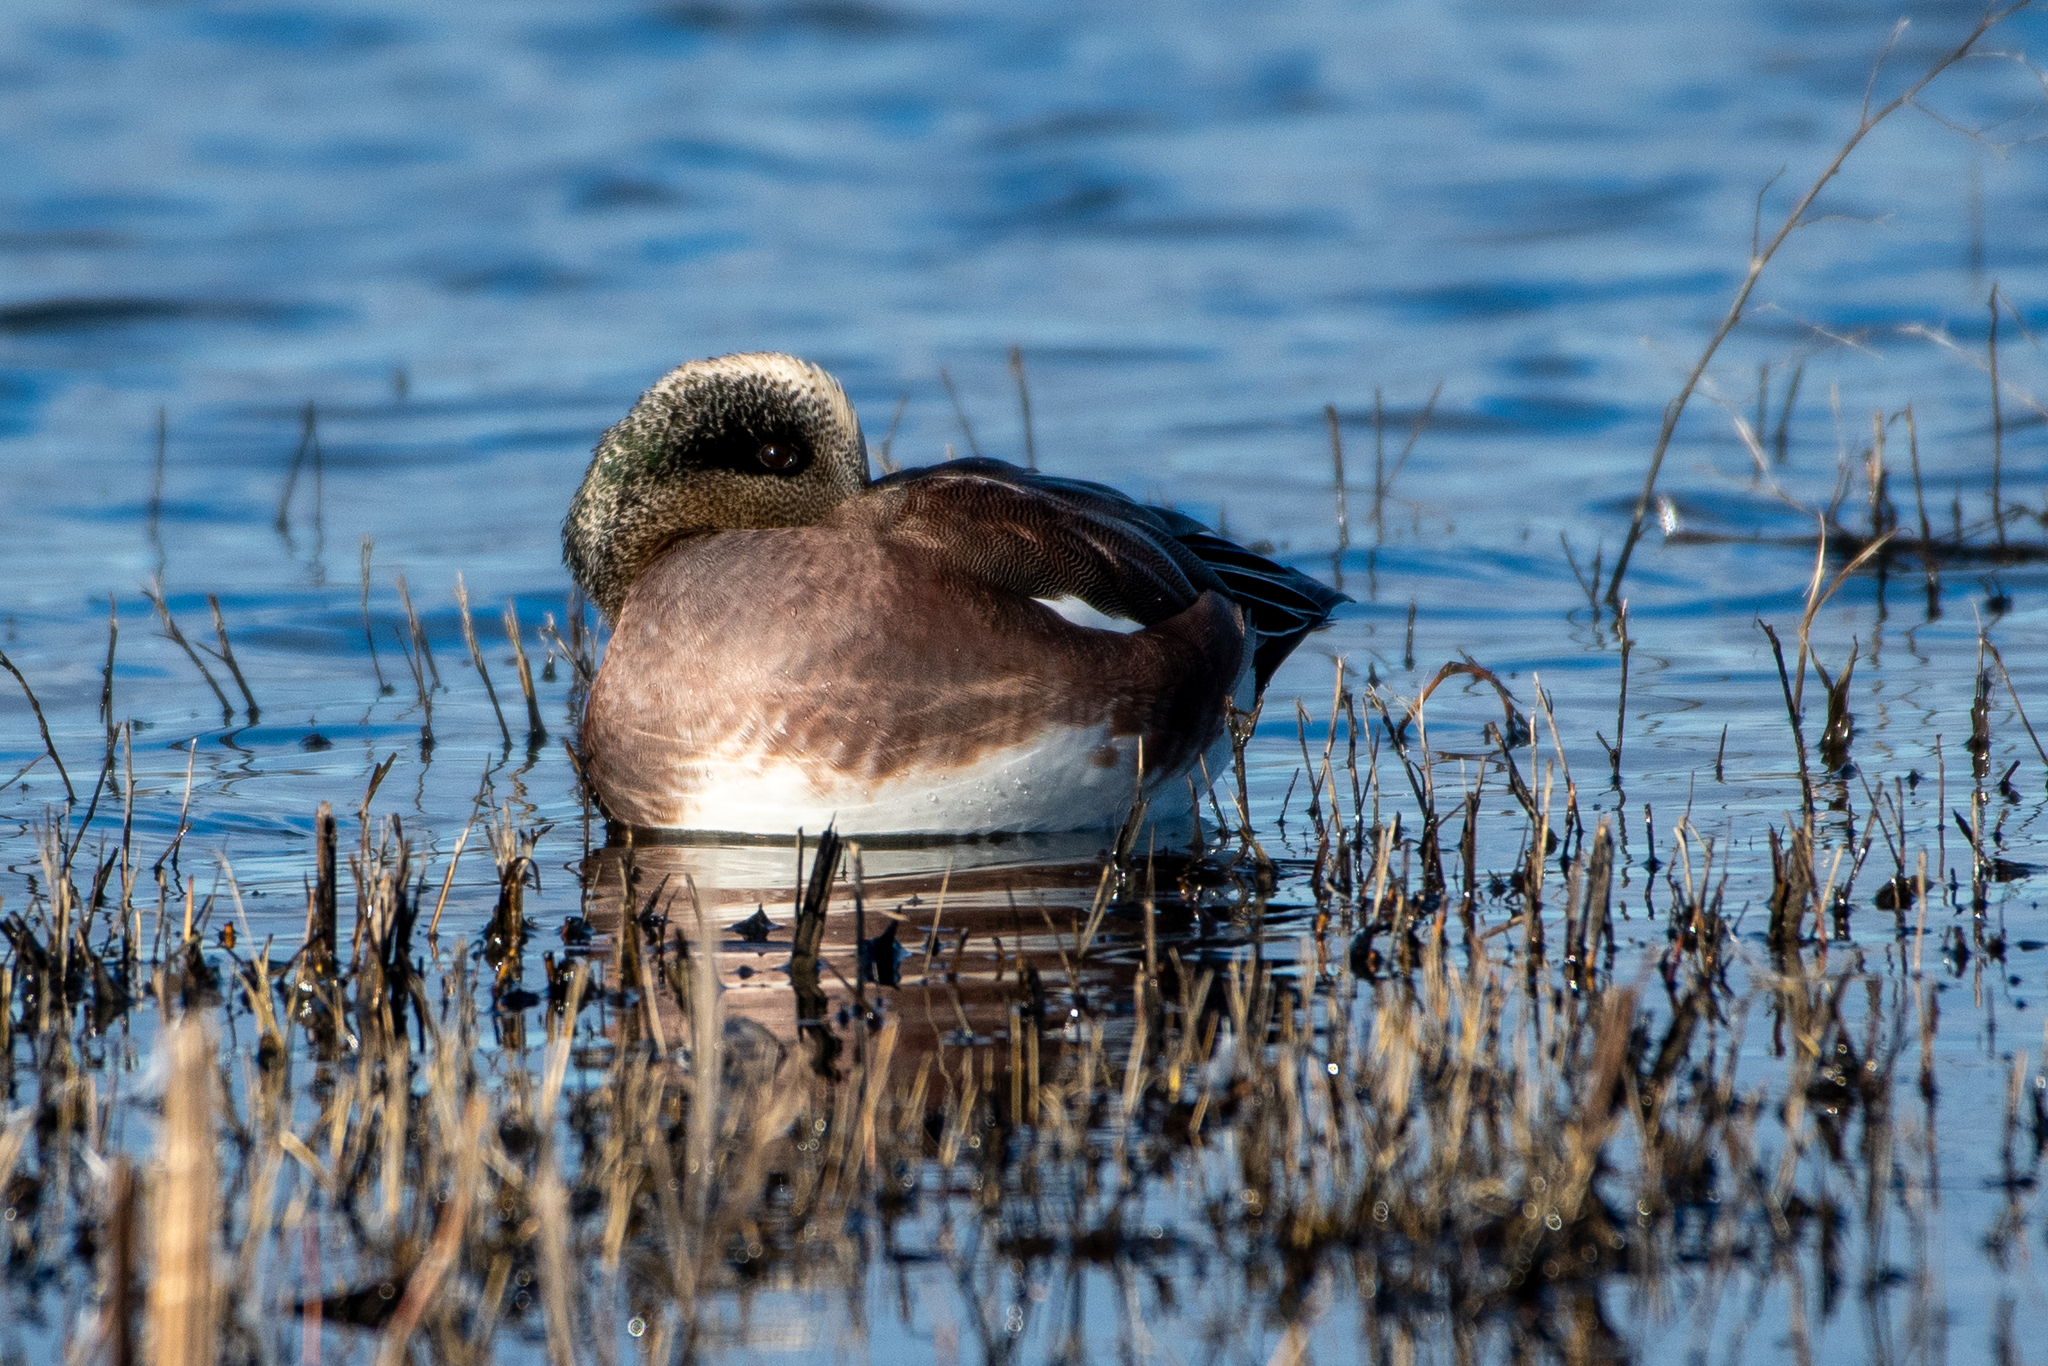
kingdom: Animalia
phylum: Chordata
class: Aves
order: Anseriformes
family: Anatidae
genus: Mareca
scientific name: Mareca americana
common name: American wigeon
